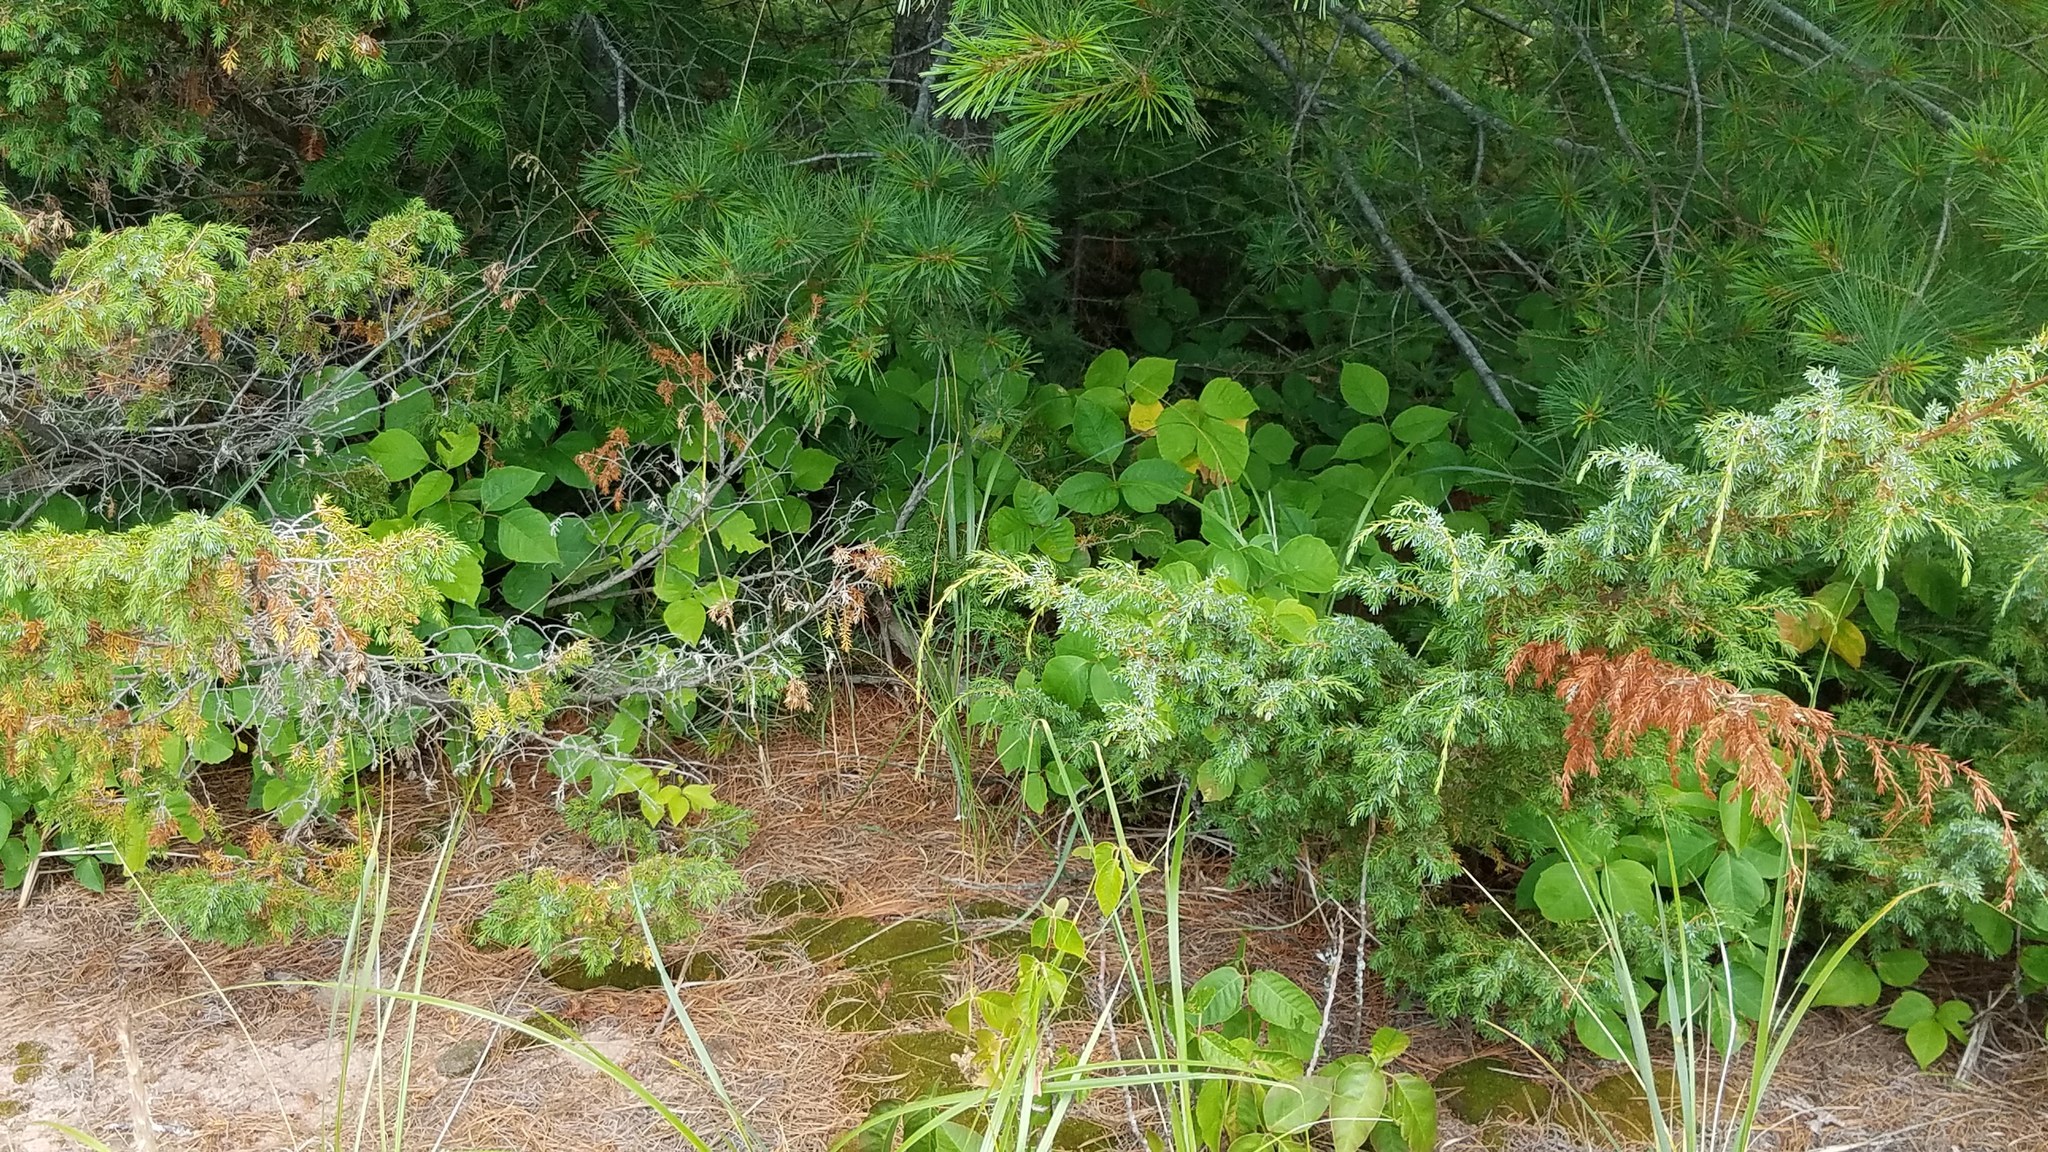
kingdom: Plantae
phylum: Tracheophyta
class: Magnoliopsida
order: Sapindales
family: Anacardiaceae
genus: Toxicodendron
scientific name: Toxicodendron rydbergii
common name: Rydberg's poison-ivy
